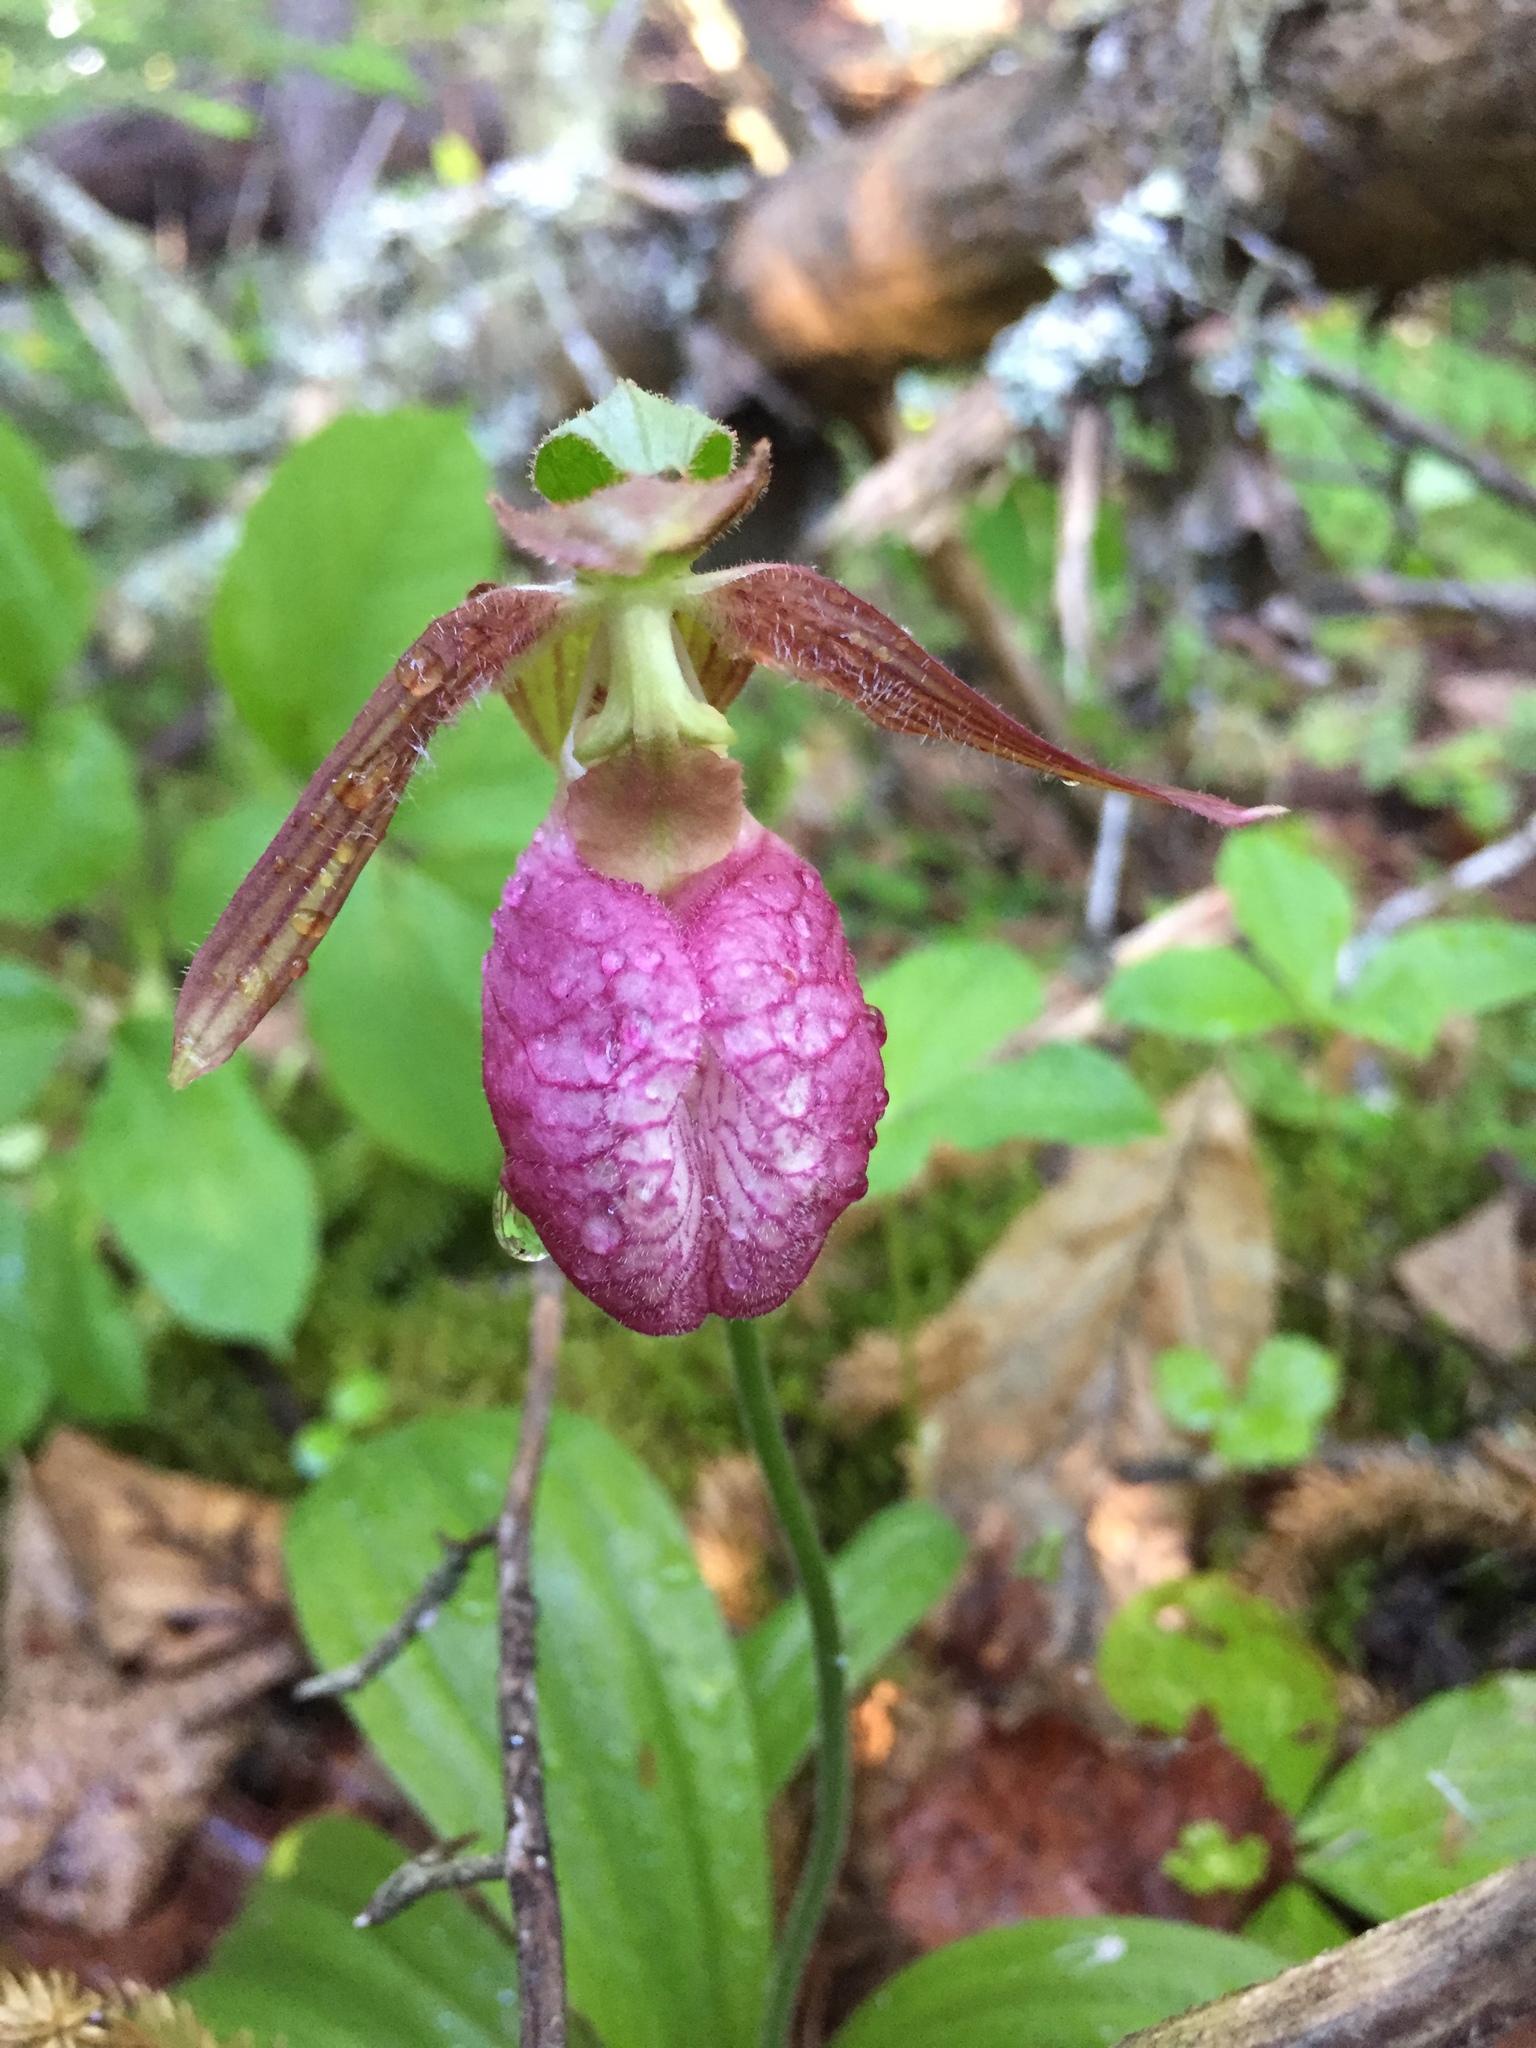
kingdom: Plantae
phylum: Tracheophyta
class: Liliopsida
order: Asparagales
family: Orchidaceae
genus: Cypripedium
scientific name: Cypripedium acaule
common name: Pink lady's-slipper
